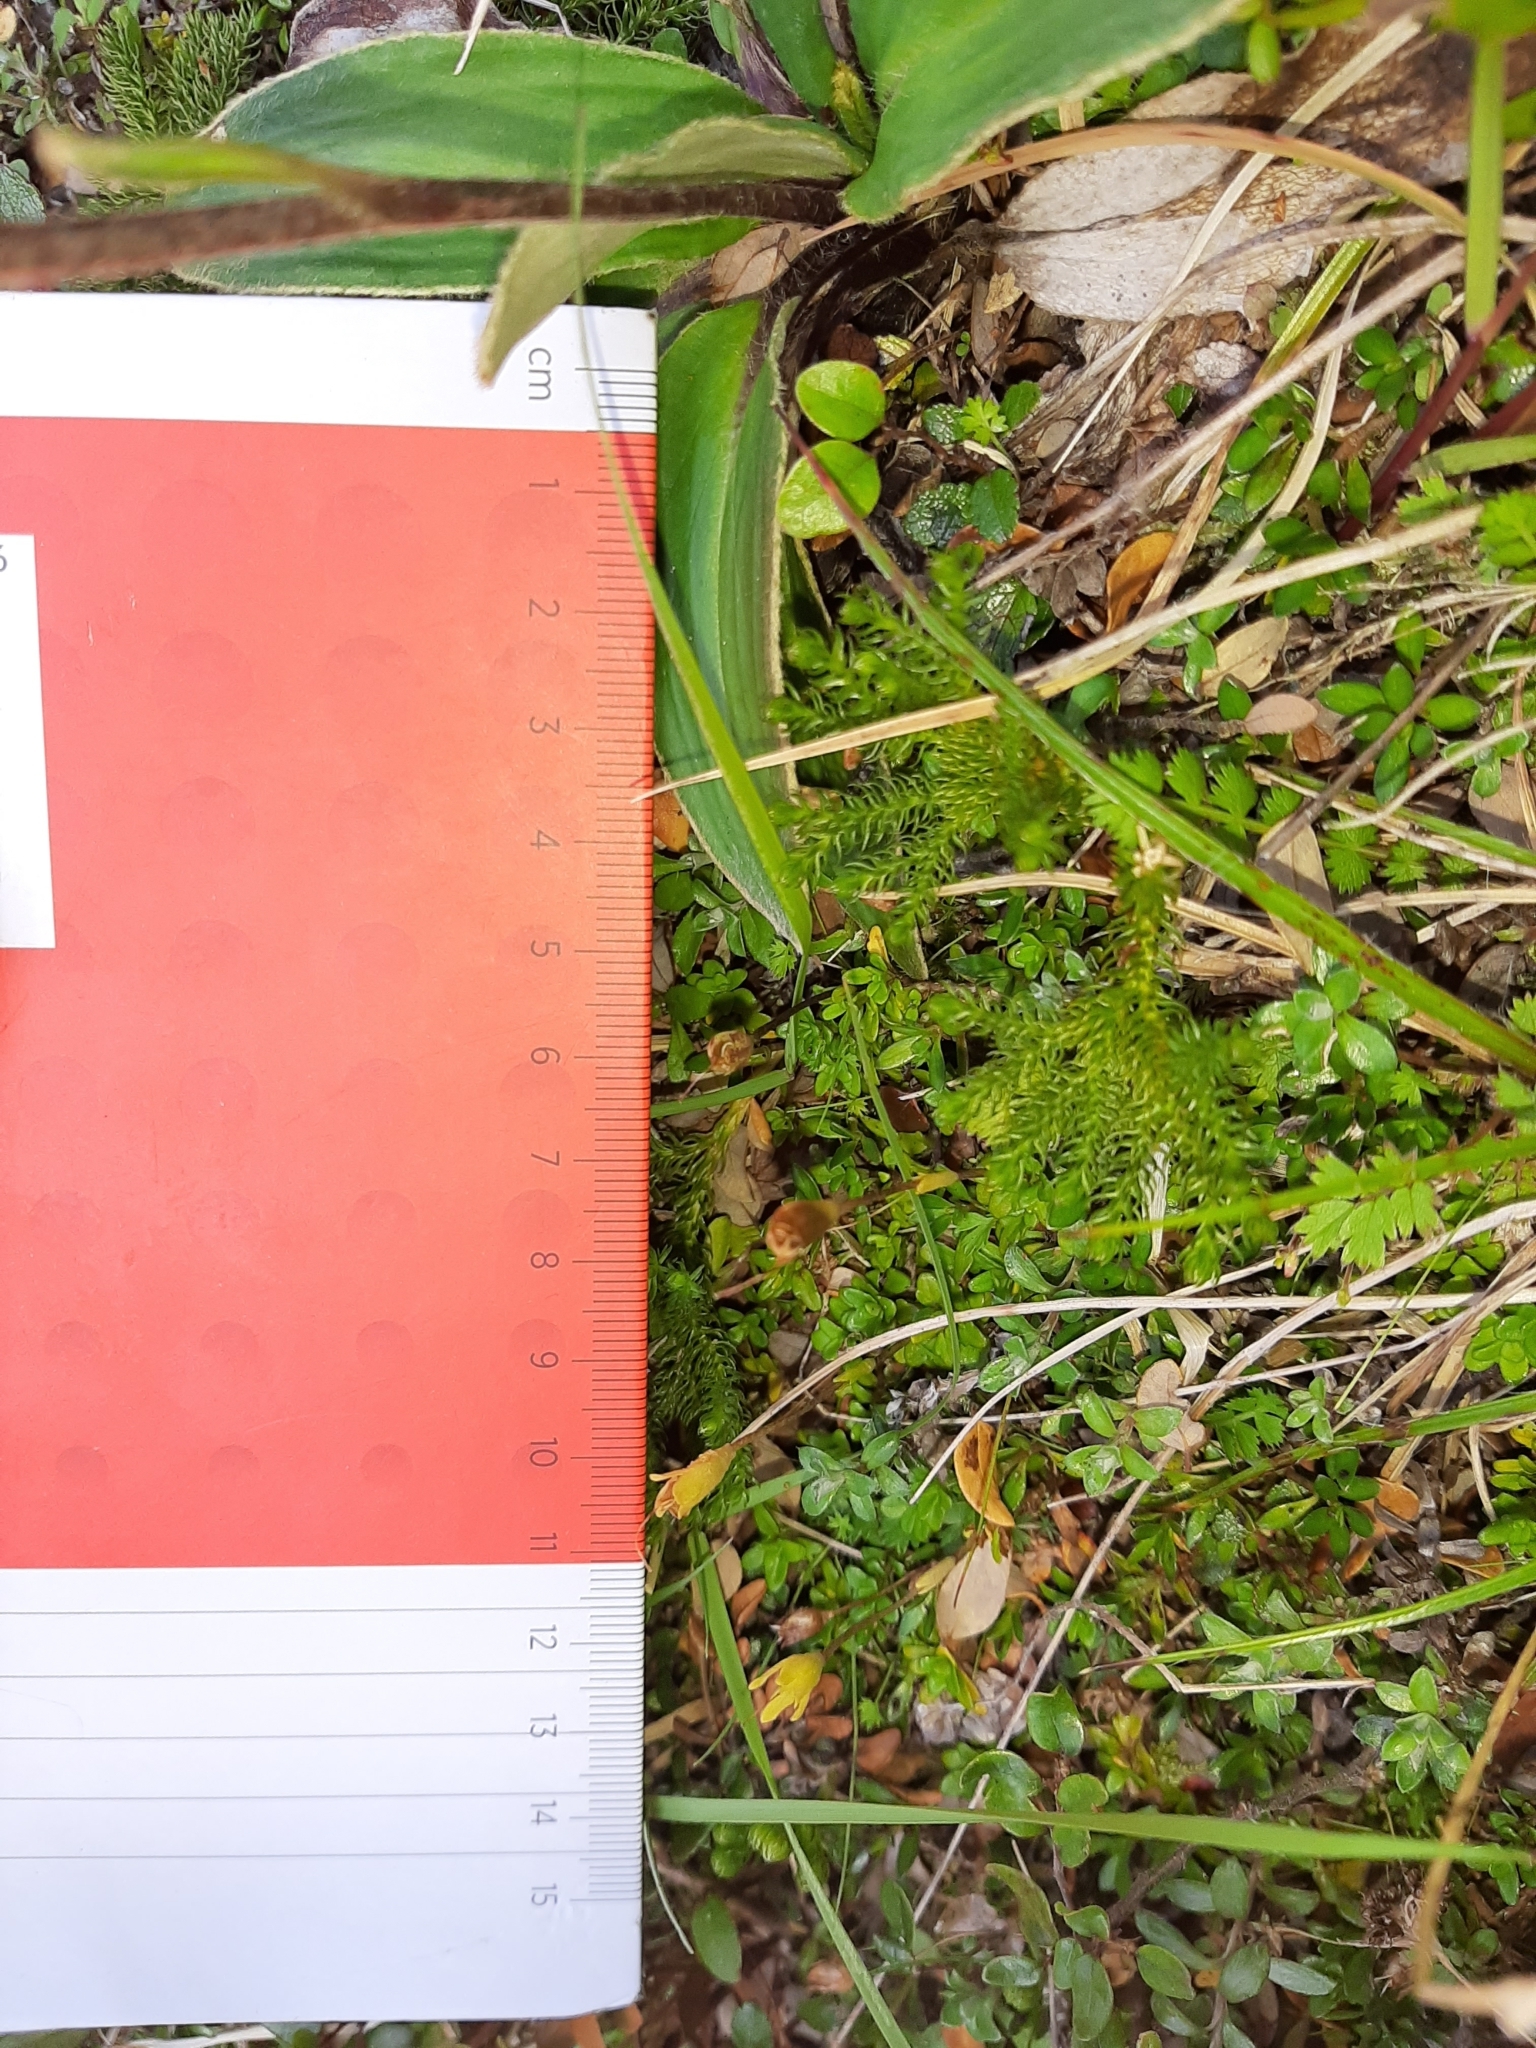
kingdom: Plantae
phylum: Tracheophyta
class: Magnoliopsida
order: Asterales
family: Asteraceae
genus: Celmisia
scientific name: Celmisia verbascifolia
